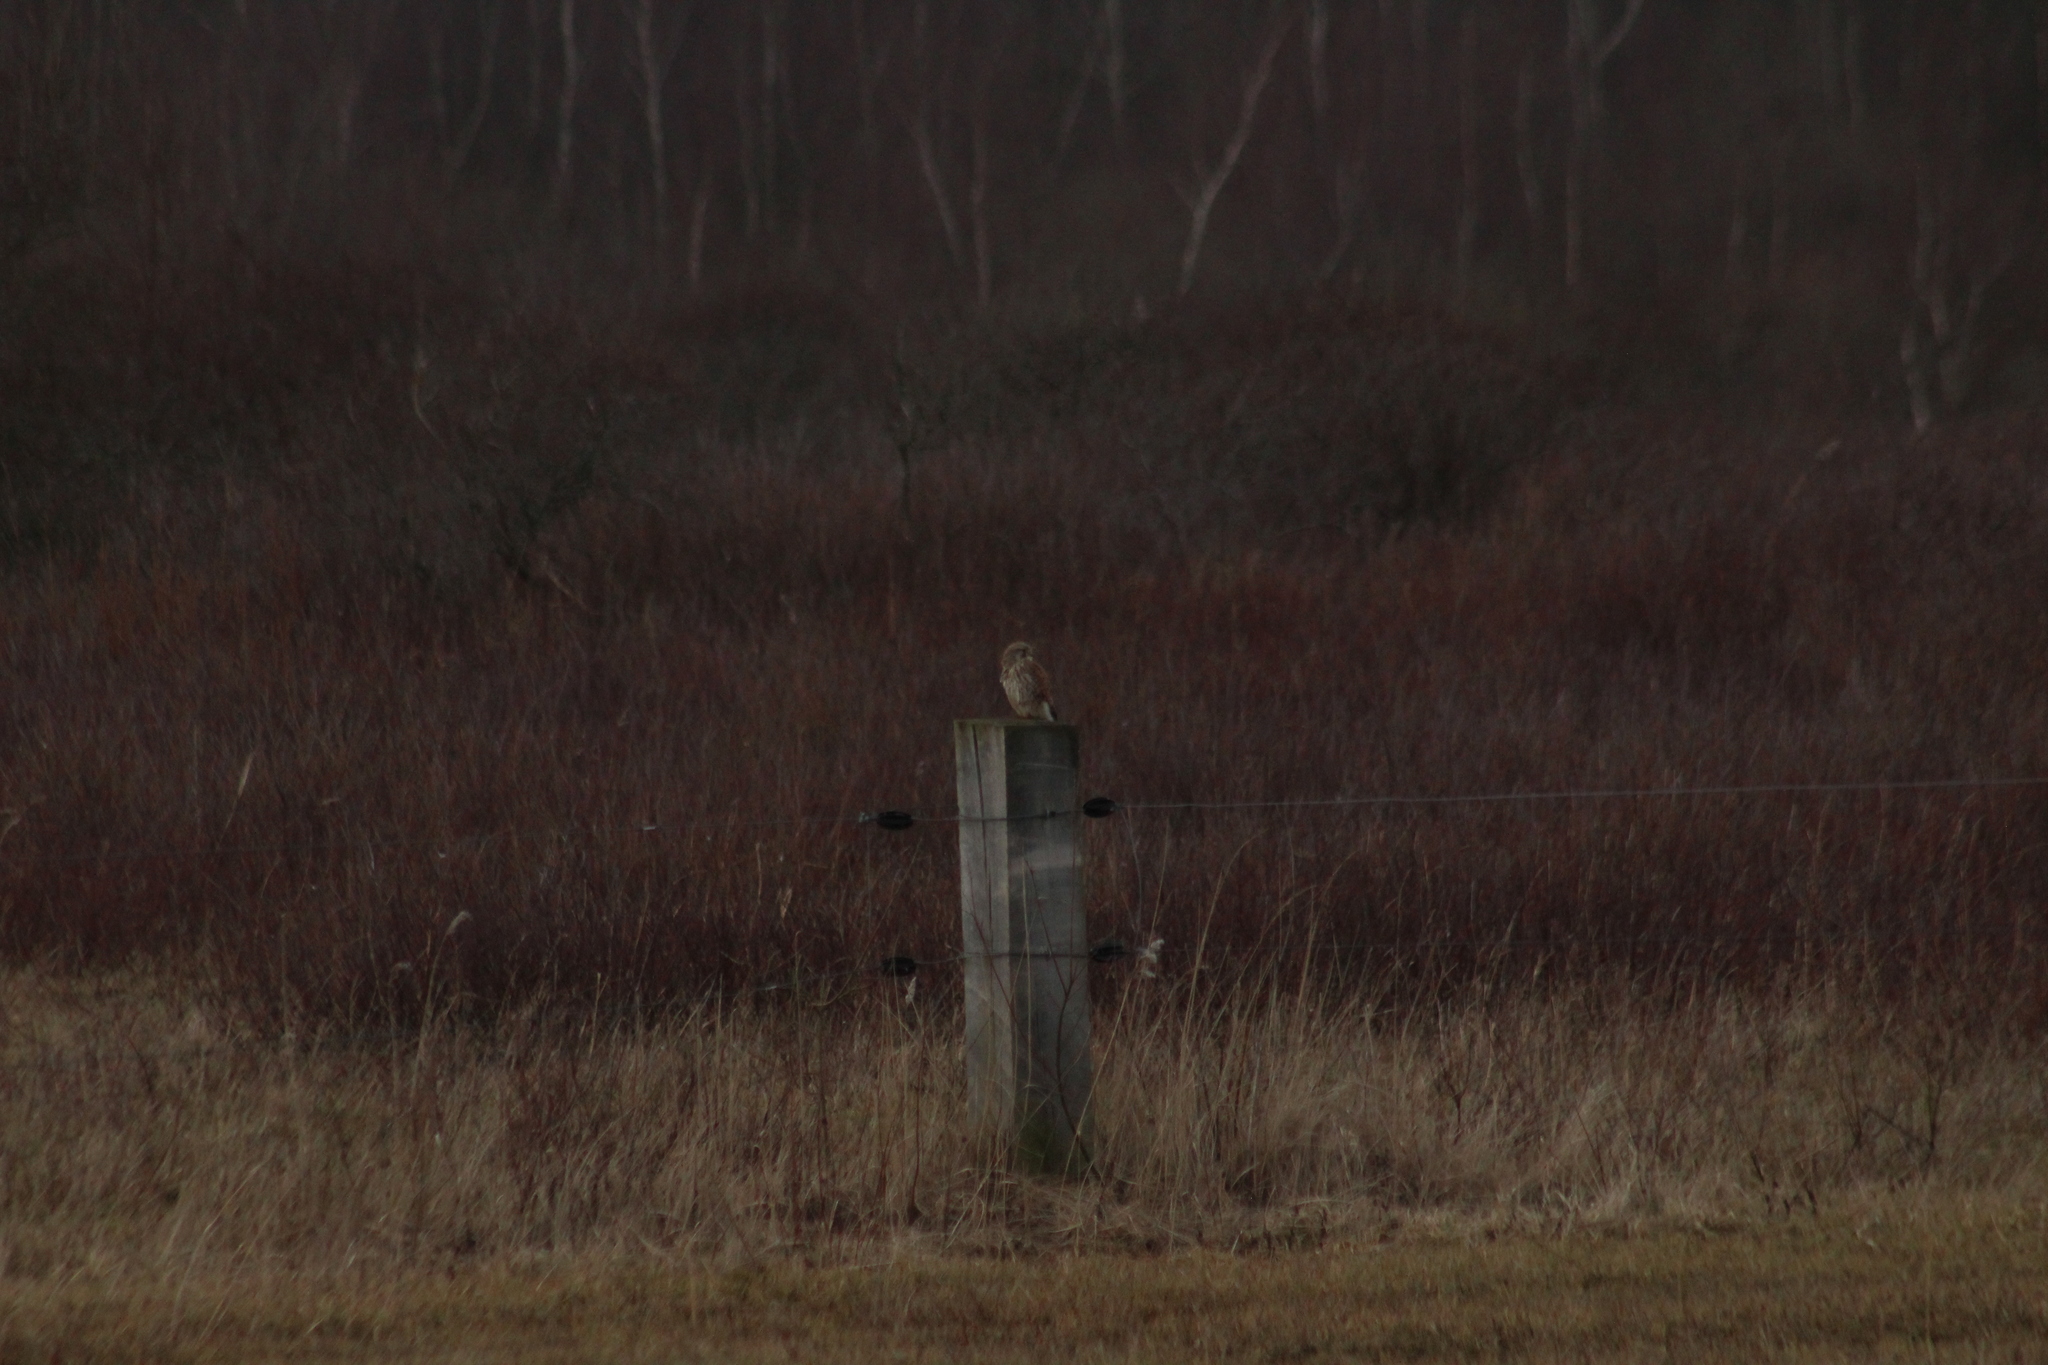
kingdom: Animalia
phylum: Chordata
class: Aves
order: Falconiformes
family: Falconidae
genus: Falco
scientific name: Falco tinnunculus
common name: Common kestrel
